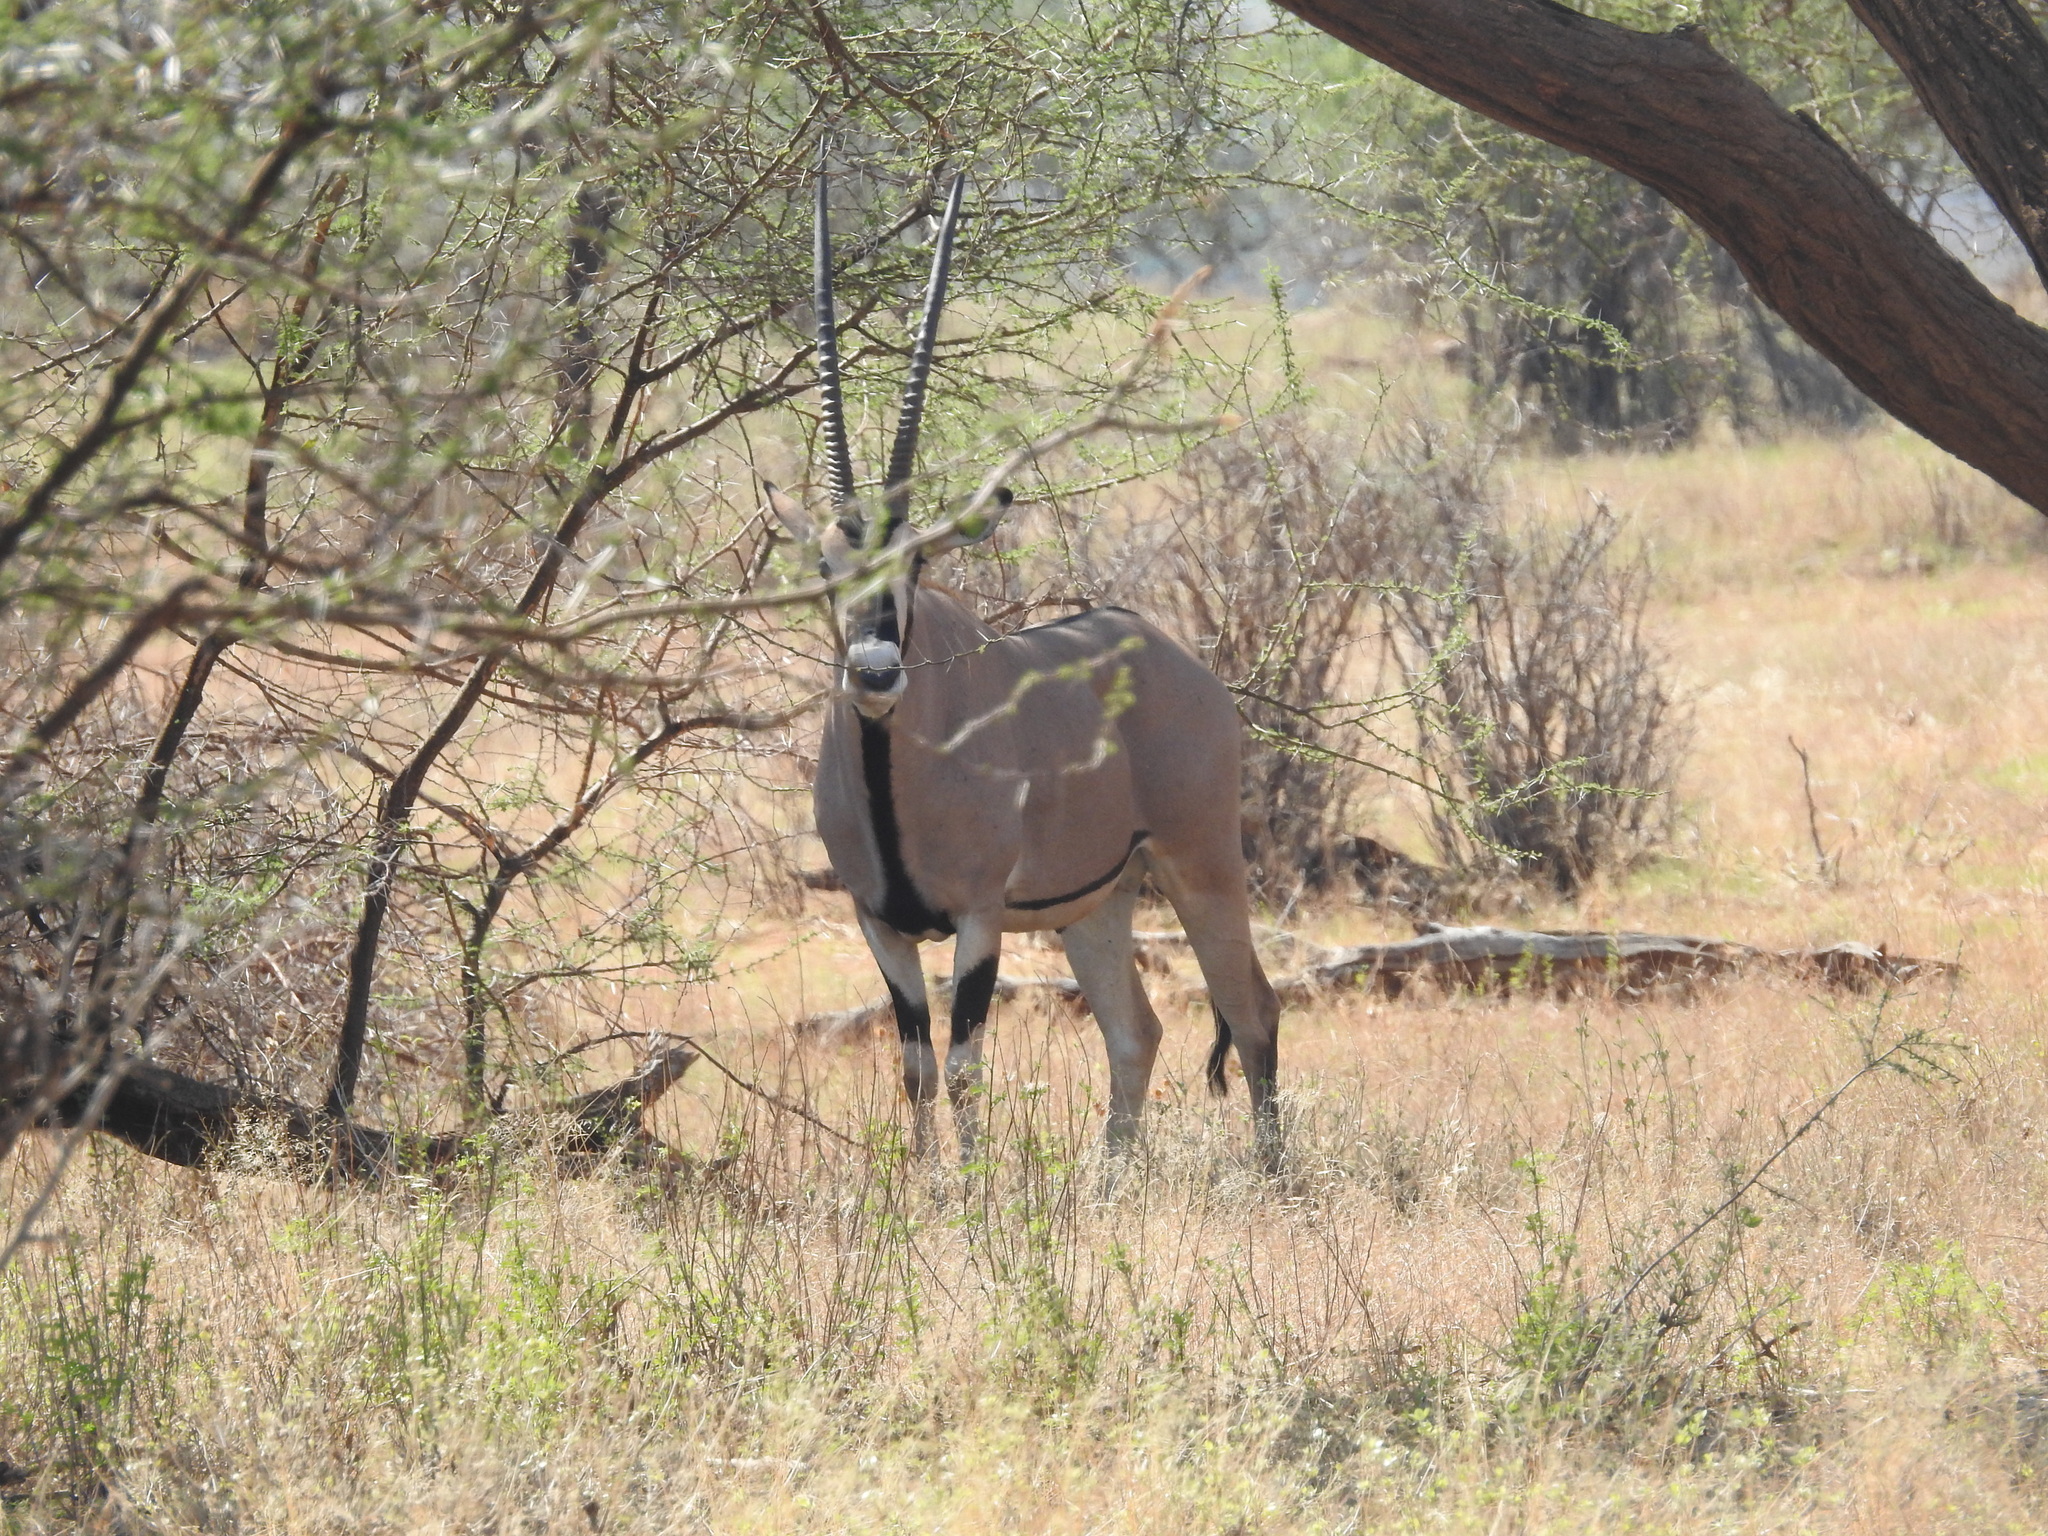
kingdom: Animalia
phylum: Chordata
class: Mammalia
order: Artiodactyla
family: Bovidae
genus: Oryx
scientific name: Oryx beisa
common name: Beisa
